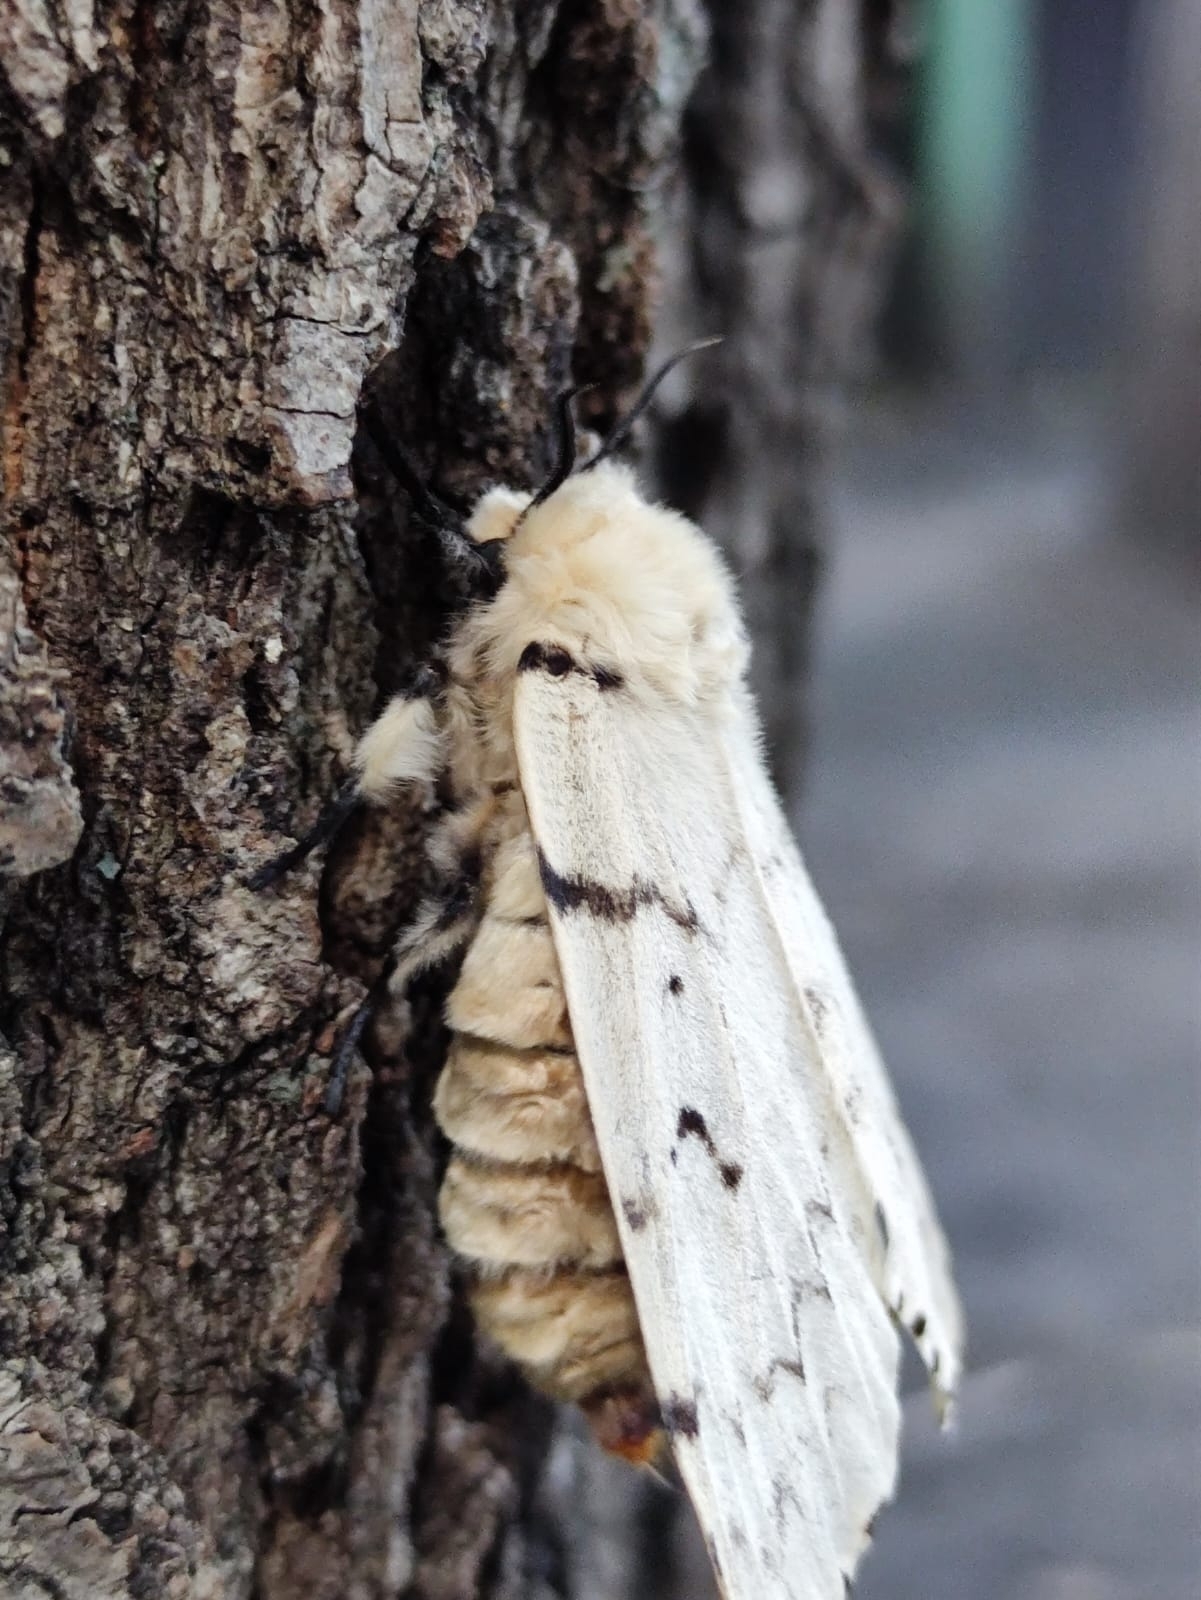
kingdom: Animalia
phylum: Arthropoda
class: Insecta
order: Lepidoptera
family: Erebidae
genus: Lymantria
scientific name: Lymantria dispar
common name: Gypsy moth
